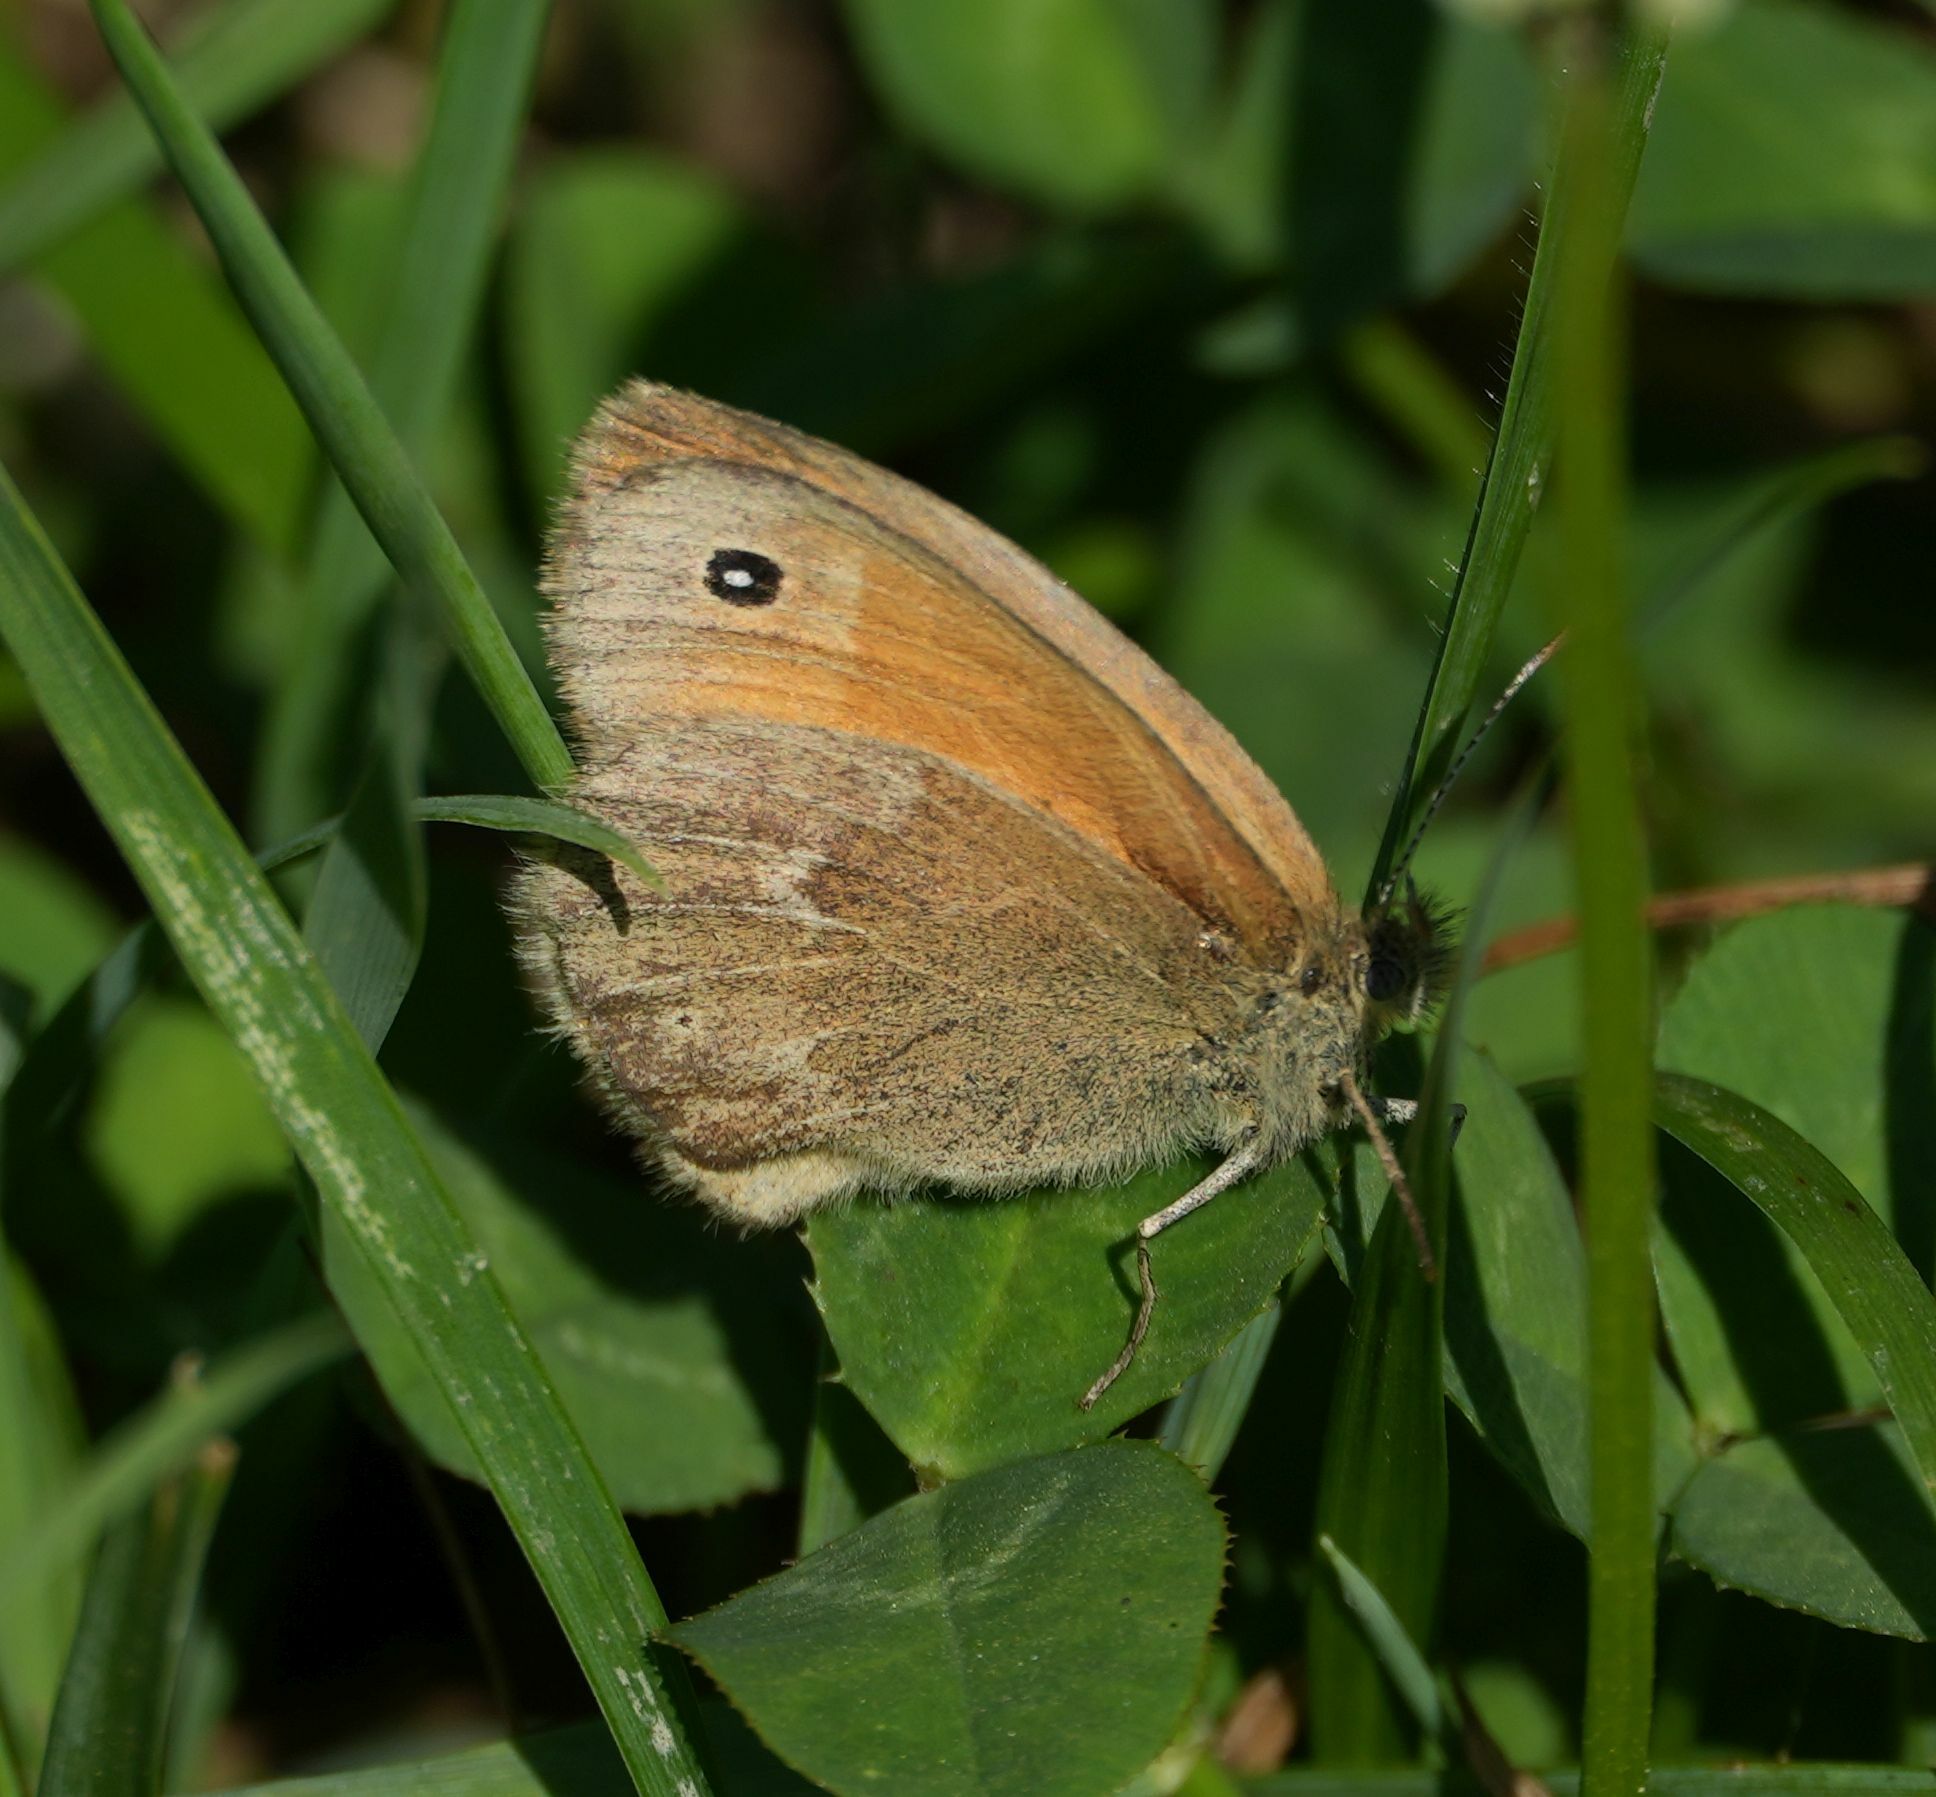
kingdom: Animalia
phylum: Arthropoda
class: Insecta
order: Lepidoptera
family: Nymphalidae
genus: Coenonympha
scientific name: Coenonympha california
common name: Common ringlet
